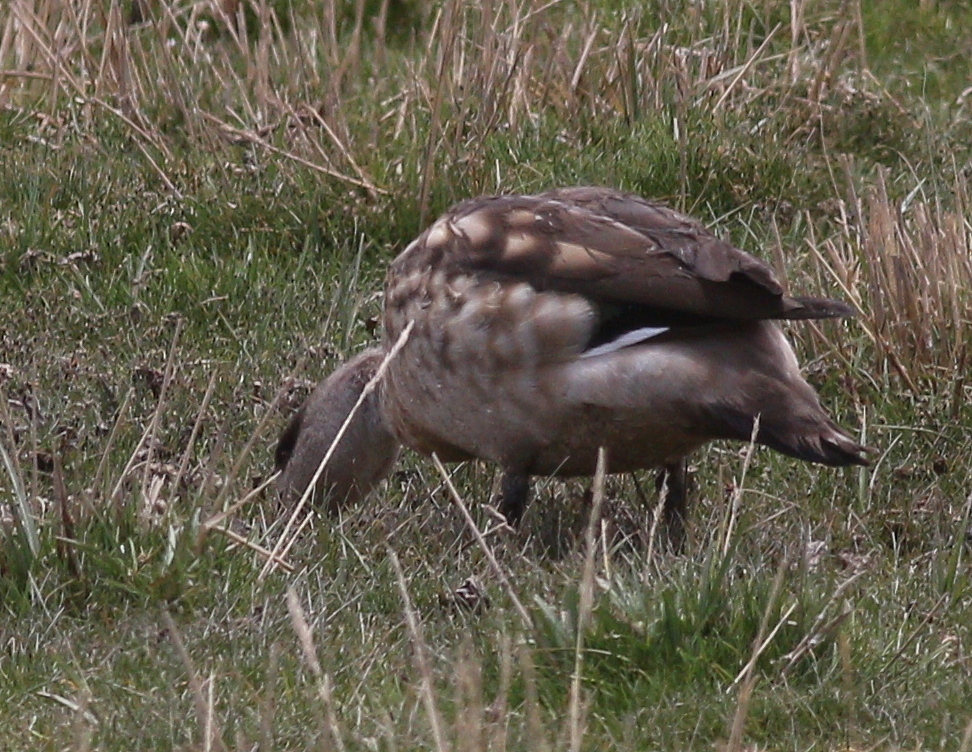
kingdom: Animalia
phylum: Chordata
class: Aves
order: Anseriformes
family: Anatidae
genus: Lophonetta
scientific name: Lophonetta specularioides
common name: Crested duck
